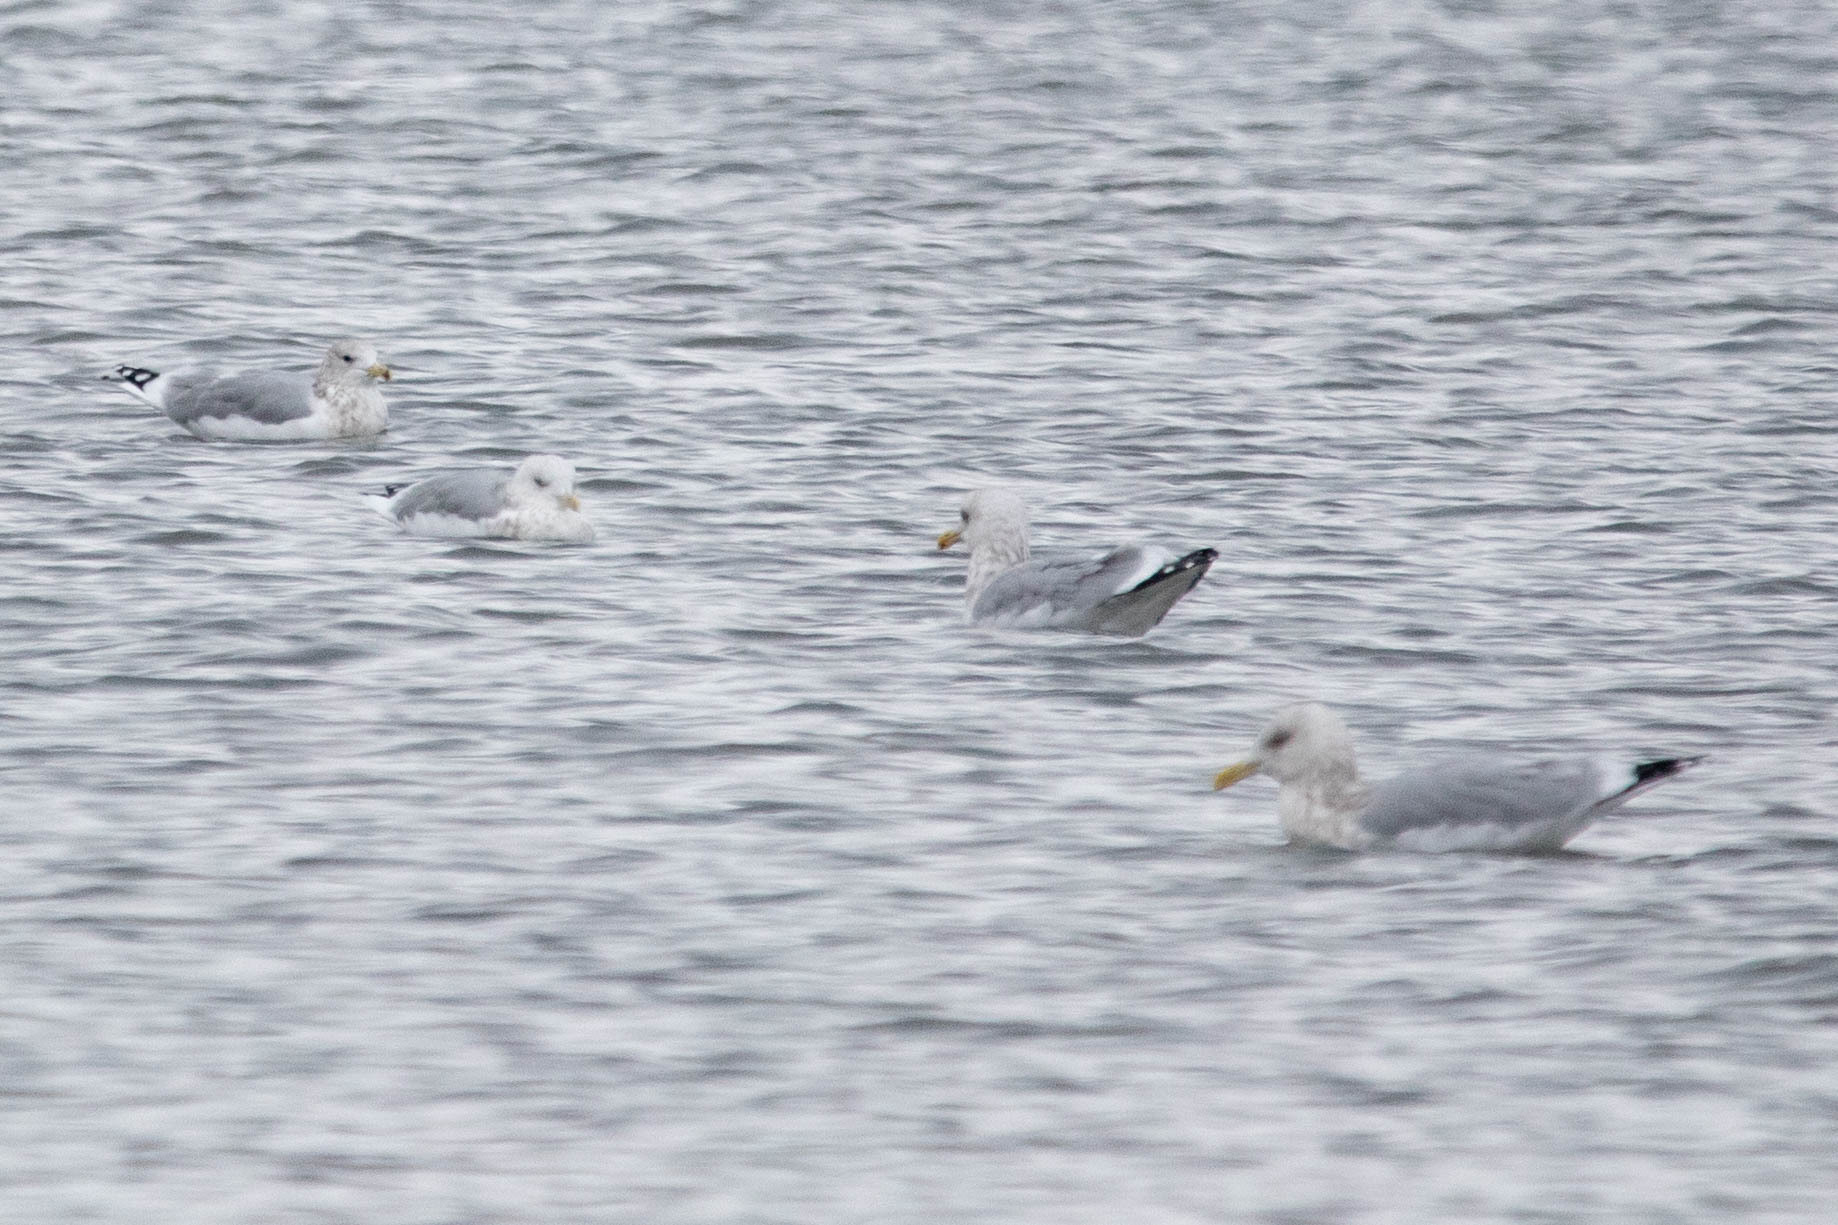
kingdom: Animalia
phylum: Chordata
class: Aves
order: Charadriiformes
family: Laridae
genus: Larus
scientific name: Larus brachyrhynchus
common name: Short-billed gull
